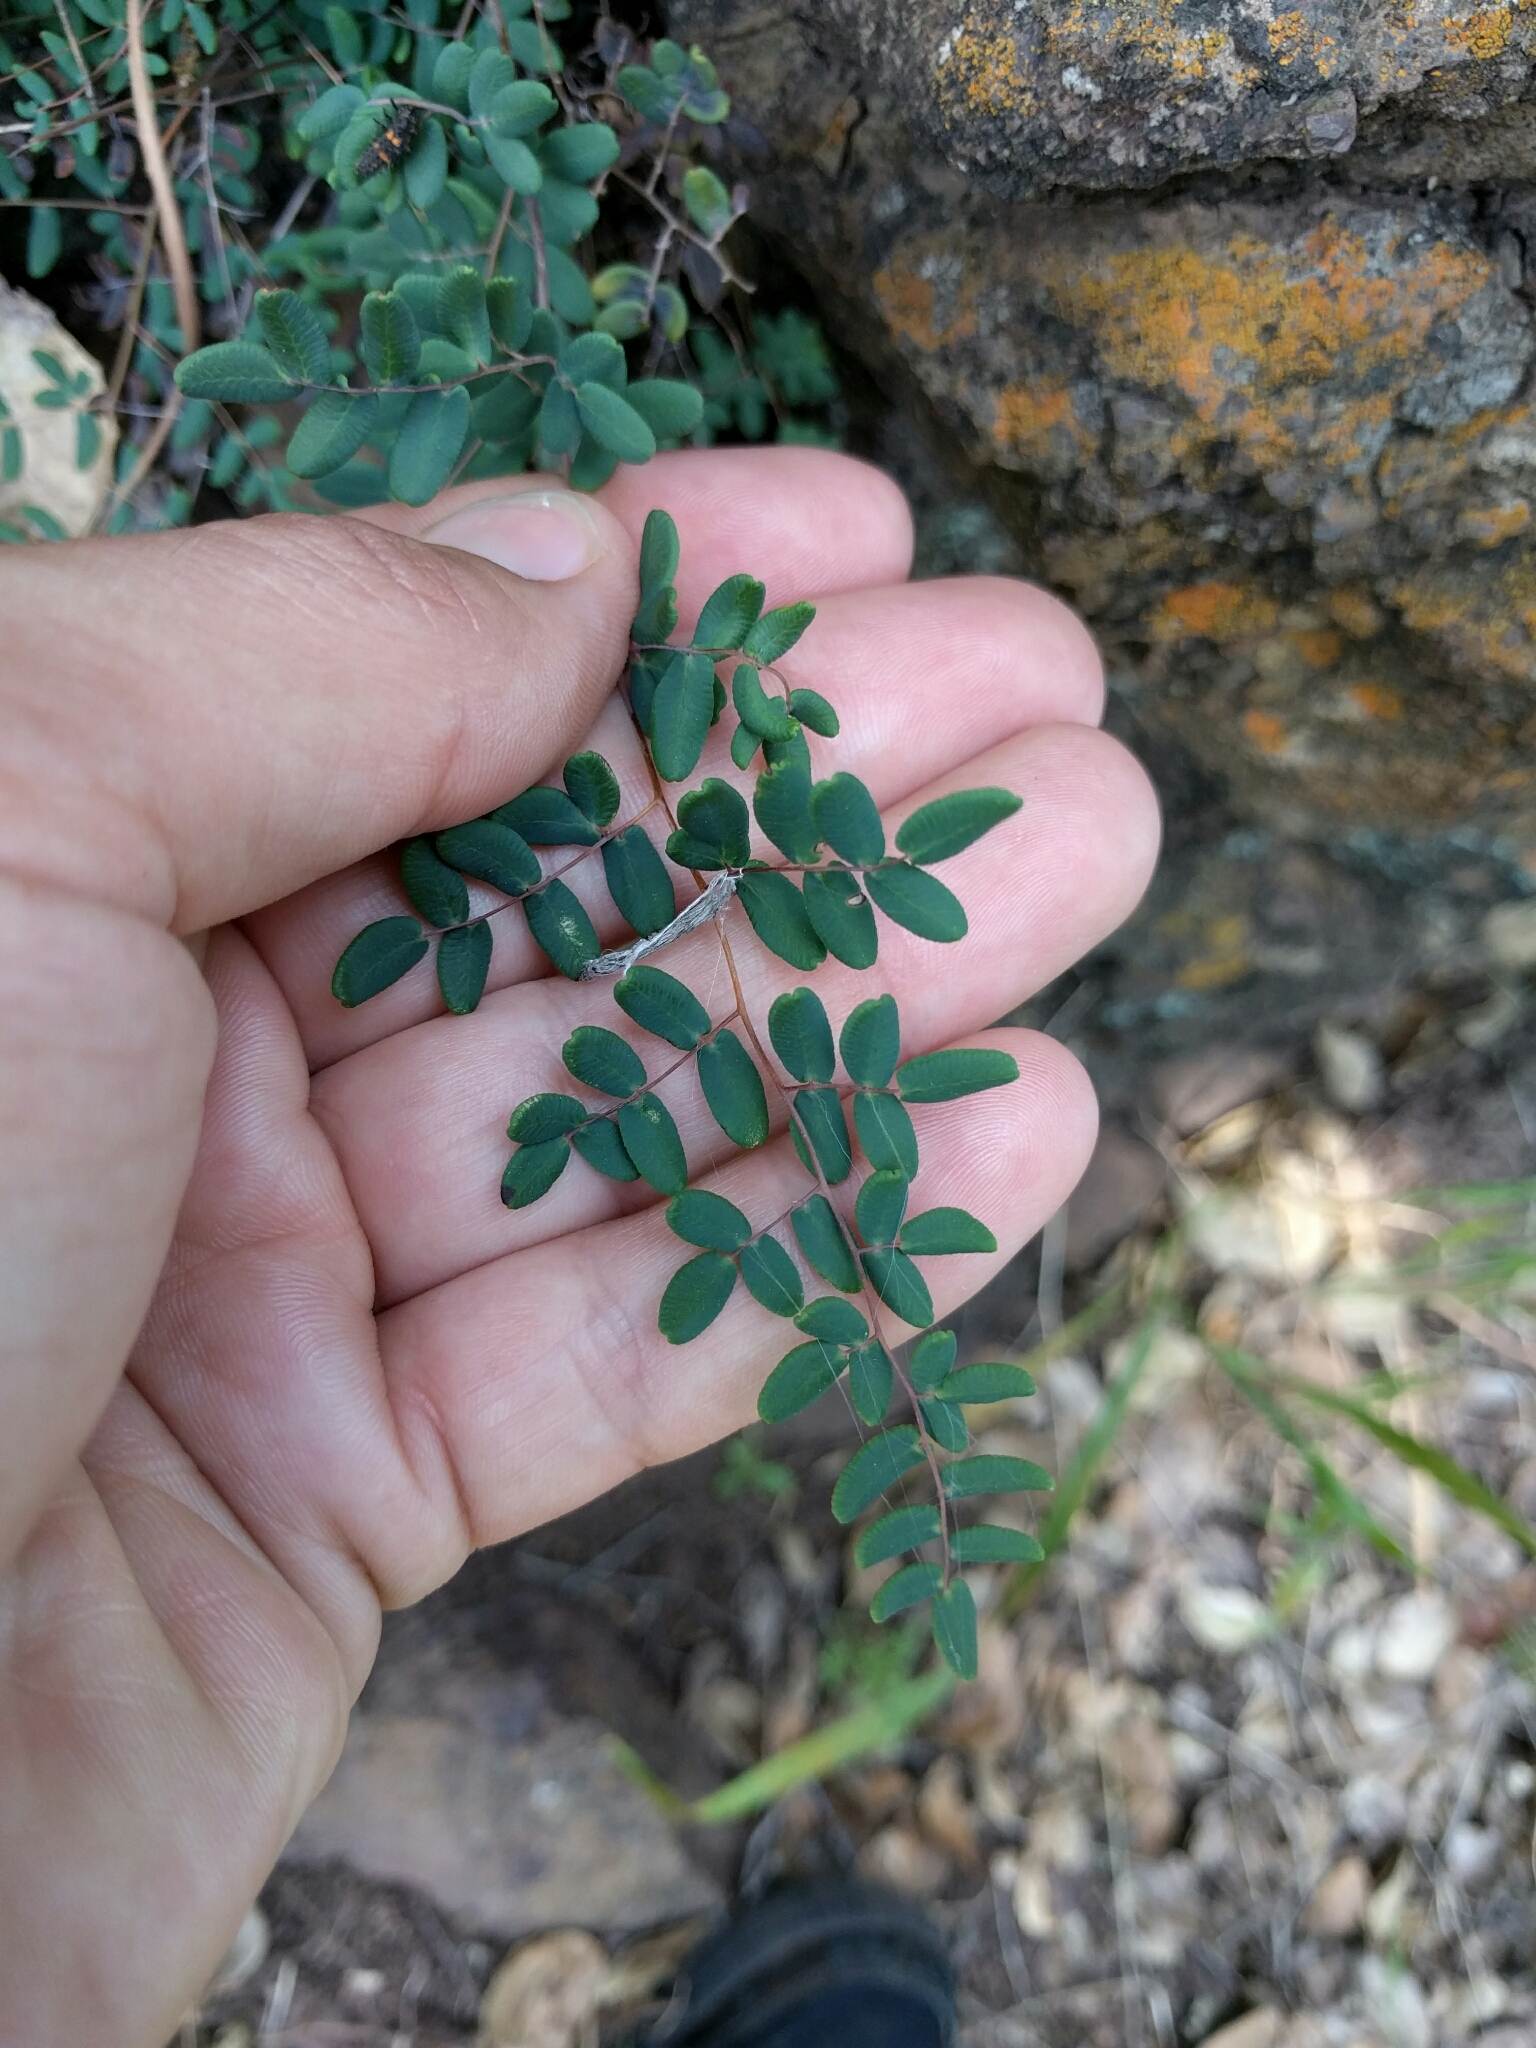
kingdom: Plantae
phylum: Tracheophyta
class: Polypodiopsida
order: Polypodiales
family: Pteridaceae
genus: Pellaea
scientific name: Pellaea andromedifolia
